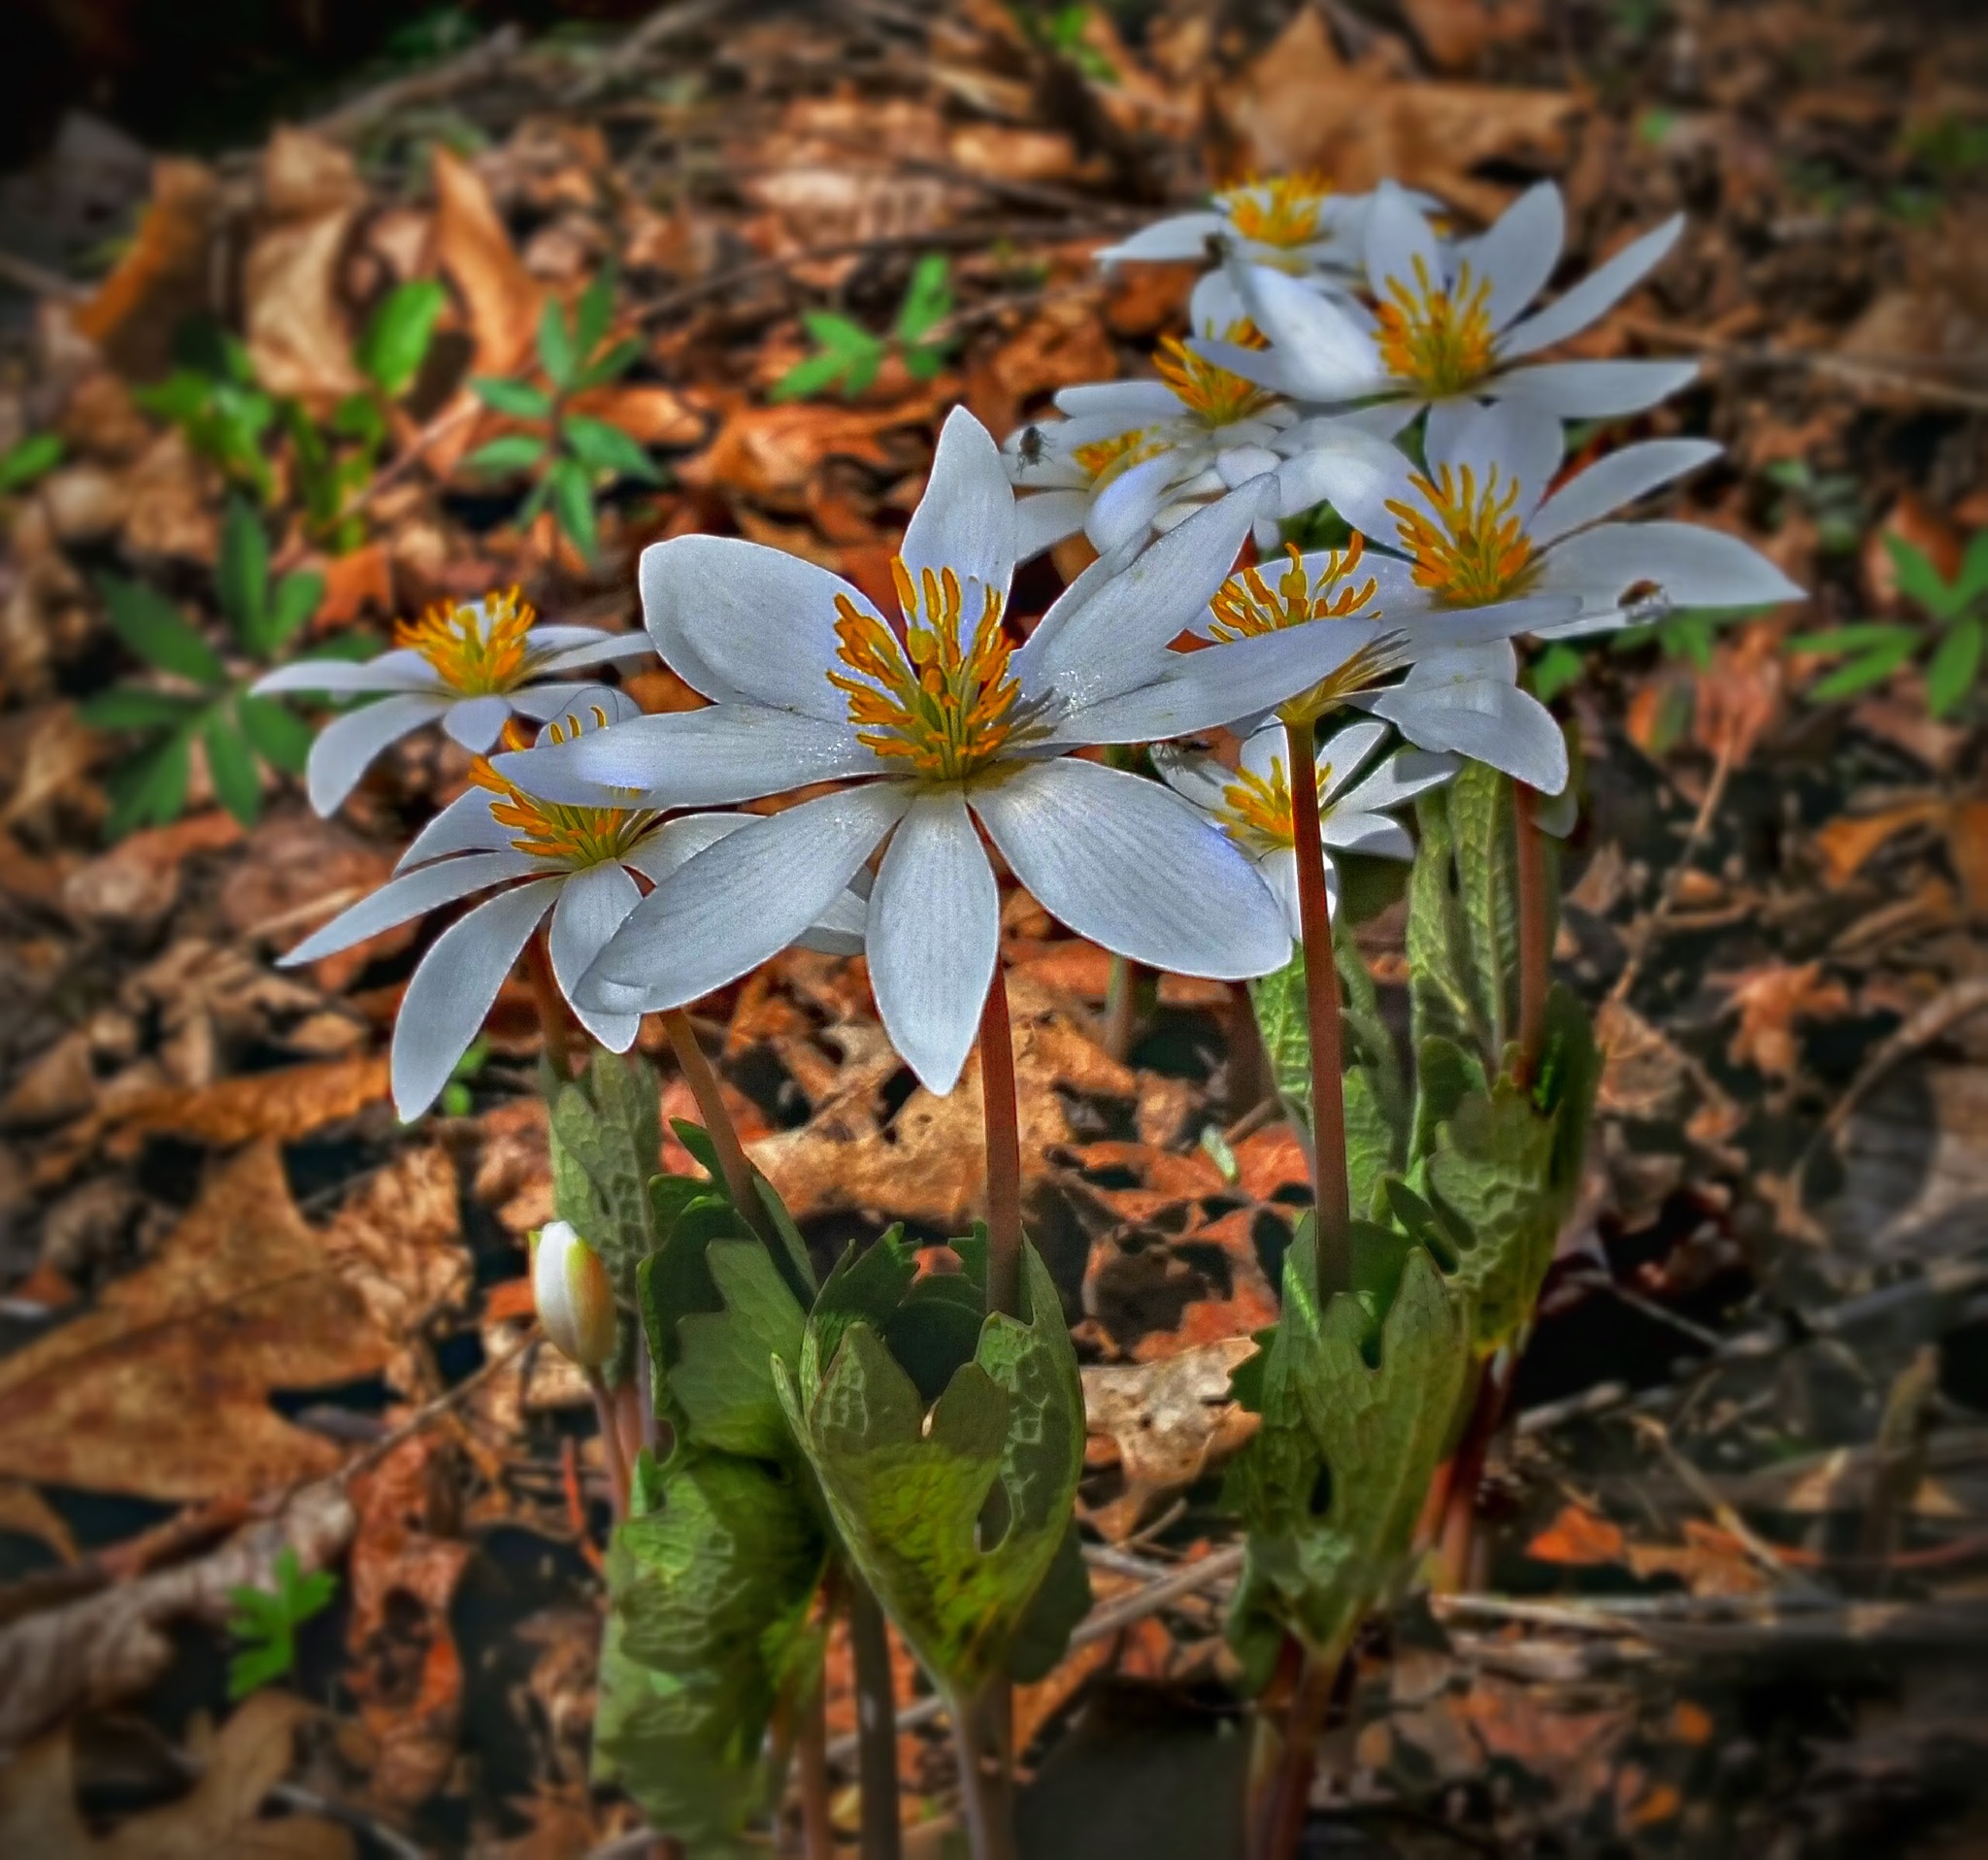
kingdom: Plantae
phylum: Tracheophyta
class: Magnoliopsida
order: Ranunculales
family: Papaveraceae
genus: Sanguinaria
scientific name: Sanguinaria canadensis
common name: Bloodroot
